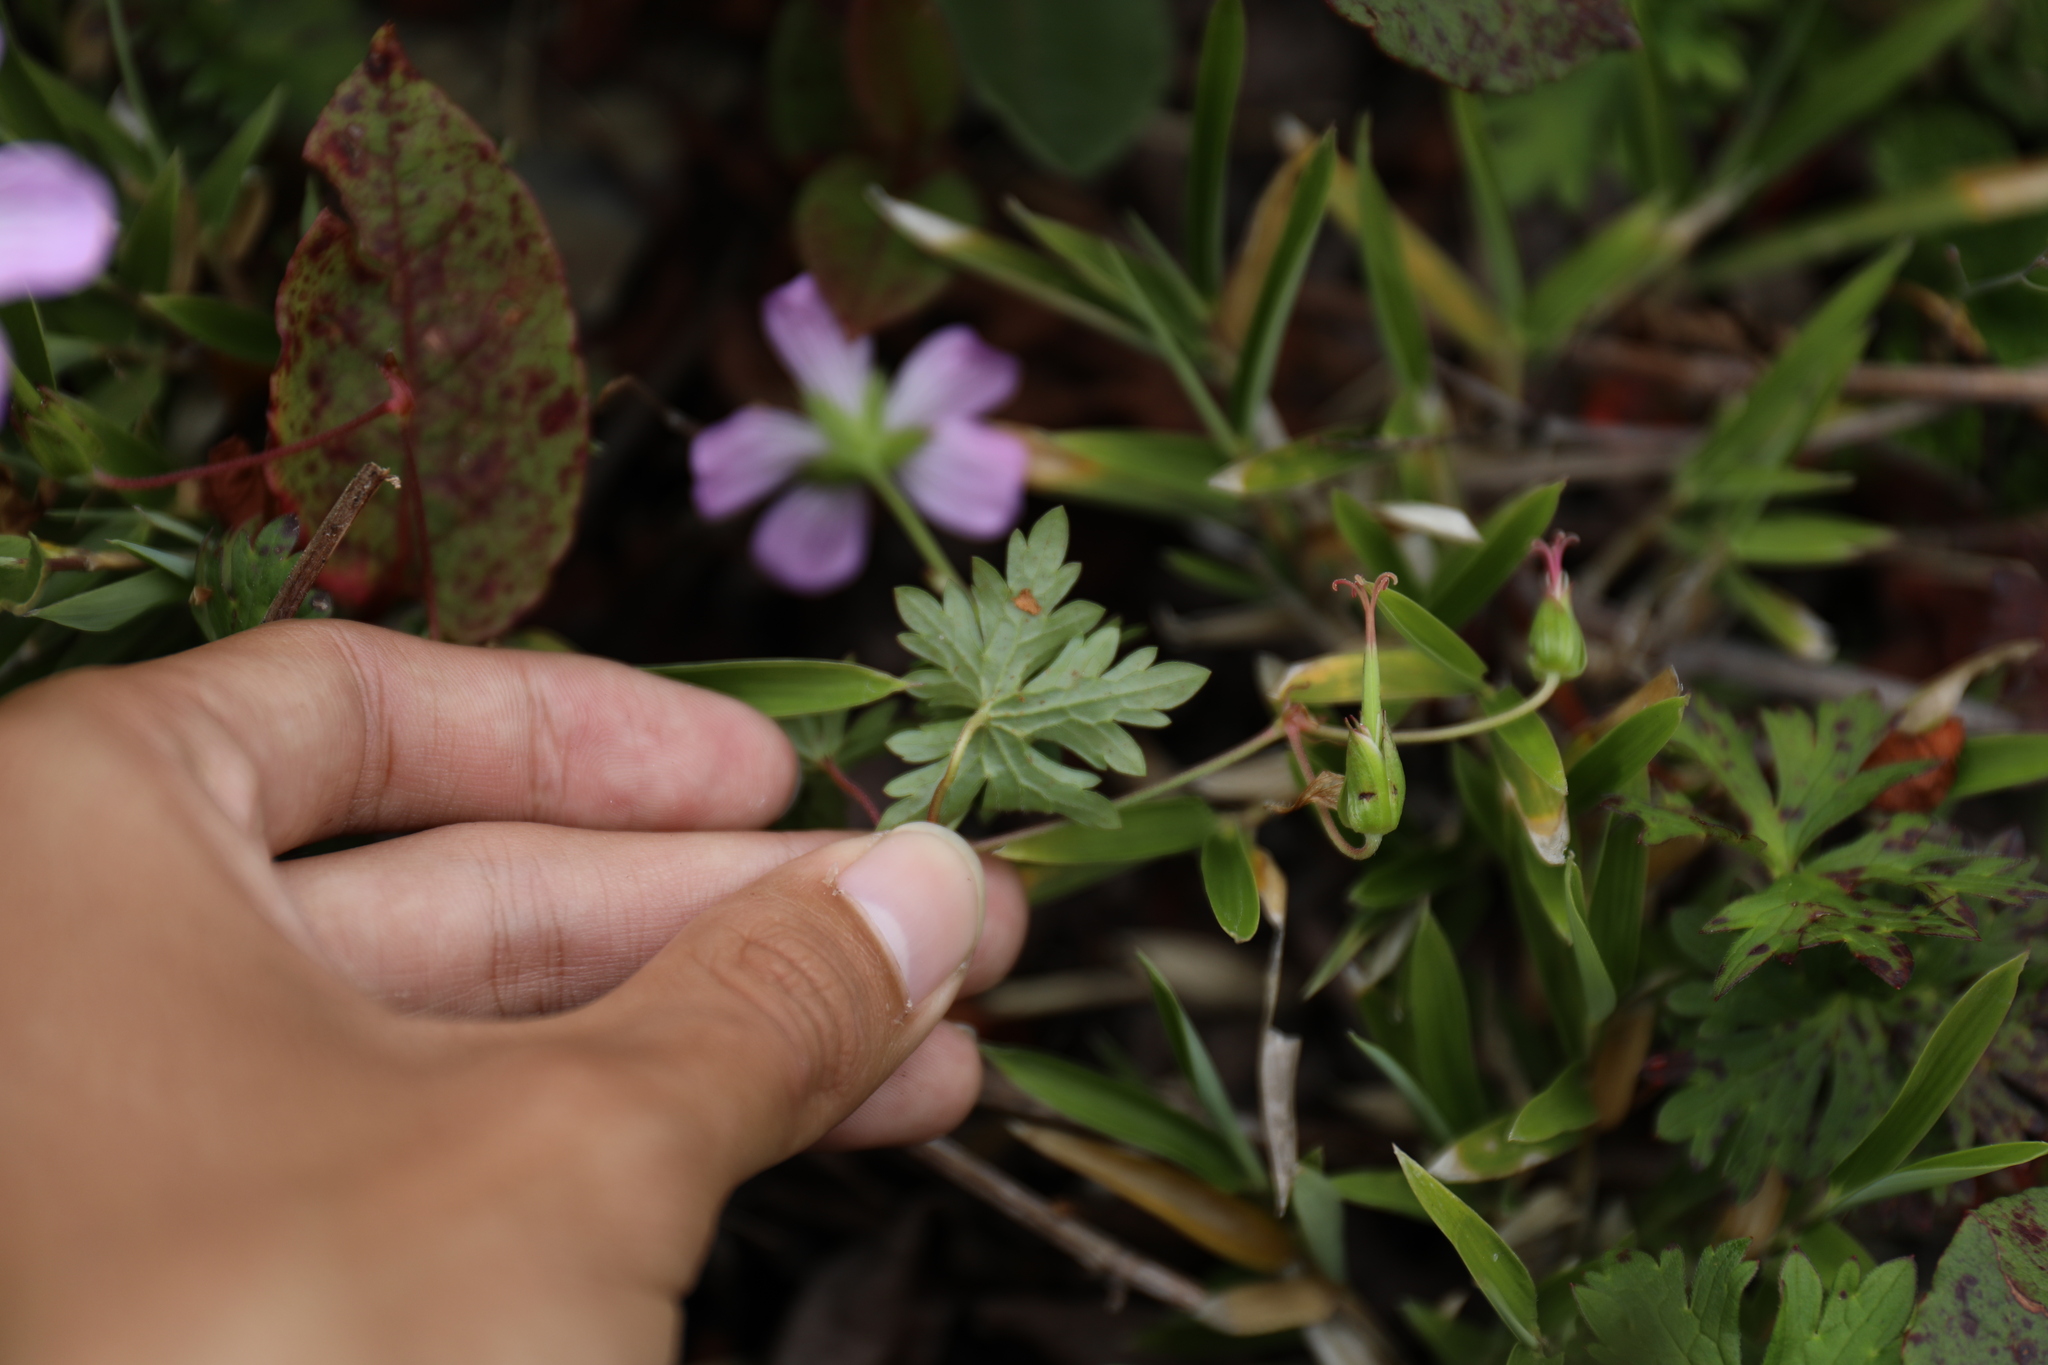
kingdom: Plantae
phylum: Tracheophyta
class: Magnoliopsida
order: Geraniales
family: Geraniaceae
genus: Geranium
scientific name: Geranium hayatanum
